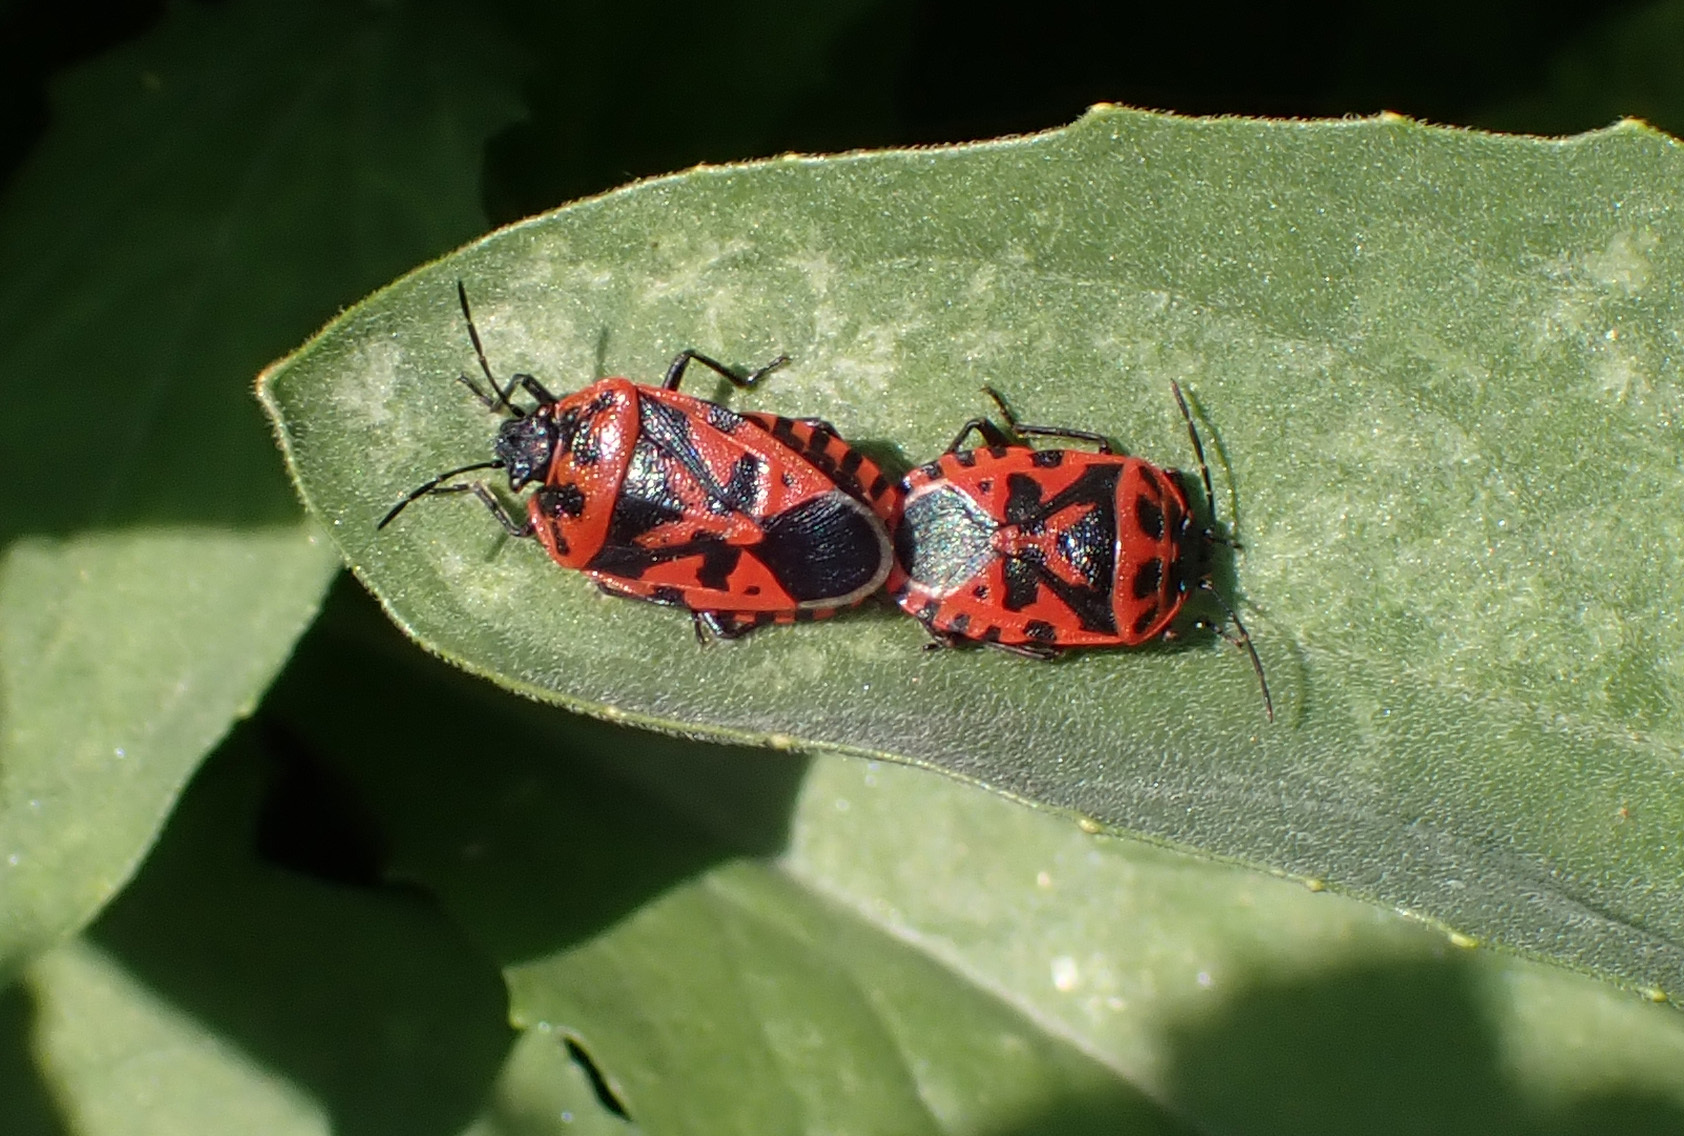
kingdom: Animalia
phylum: Arthropoda
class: Insecta
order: Hemiptera
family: Pentatomidae
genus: Eurydema
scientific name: Eurydema ventralis
